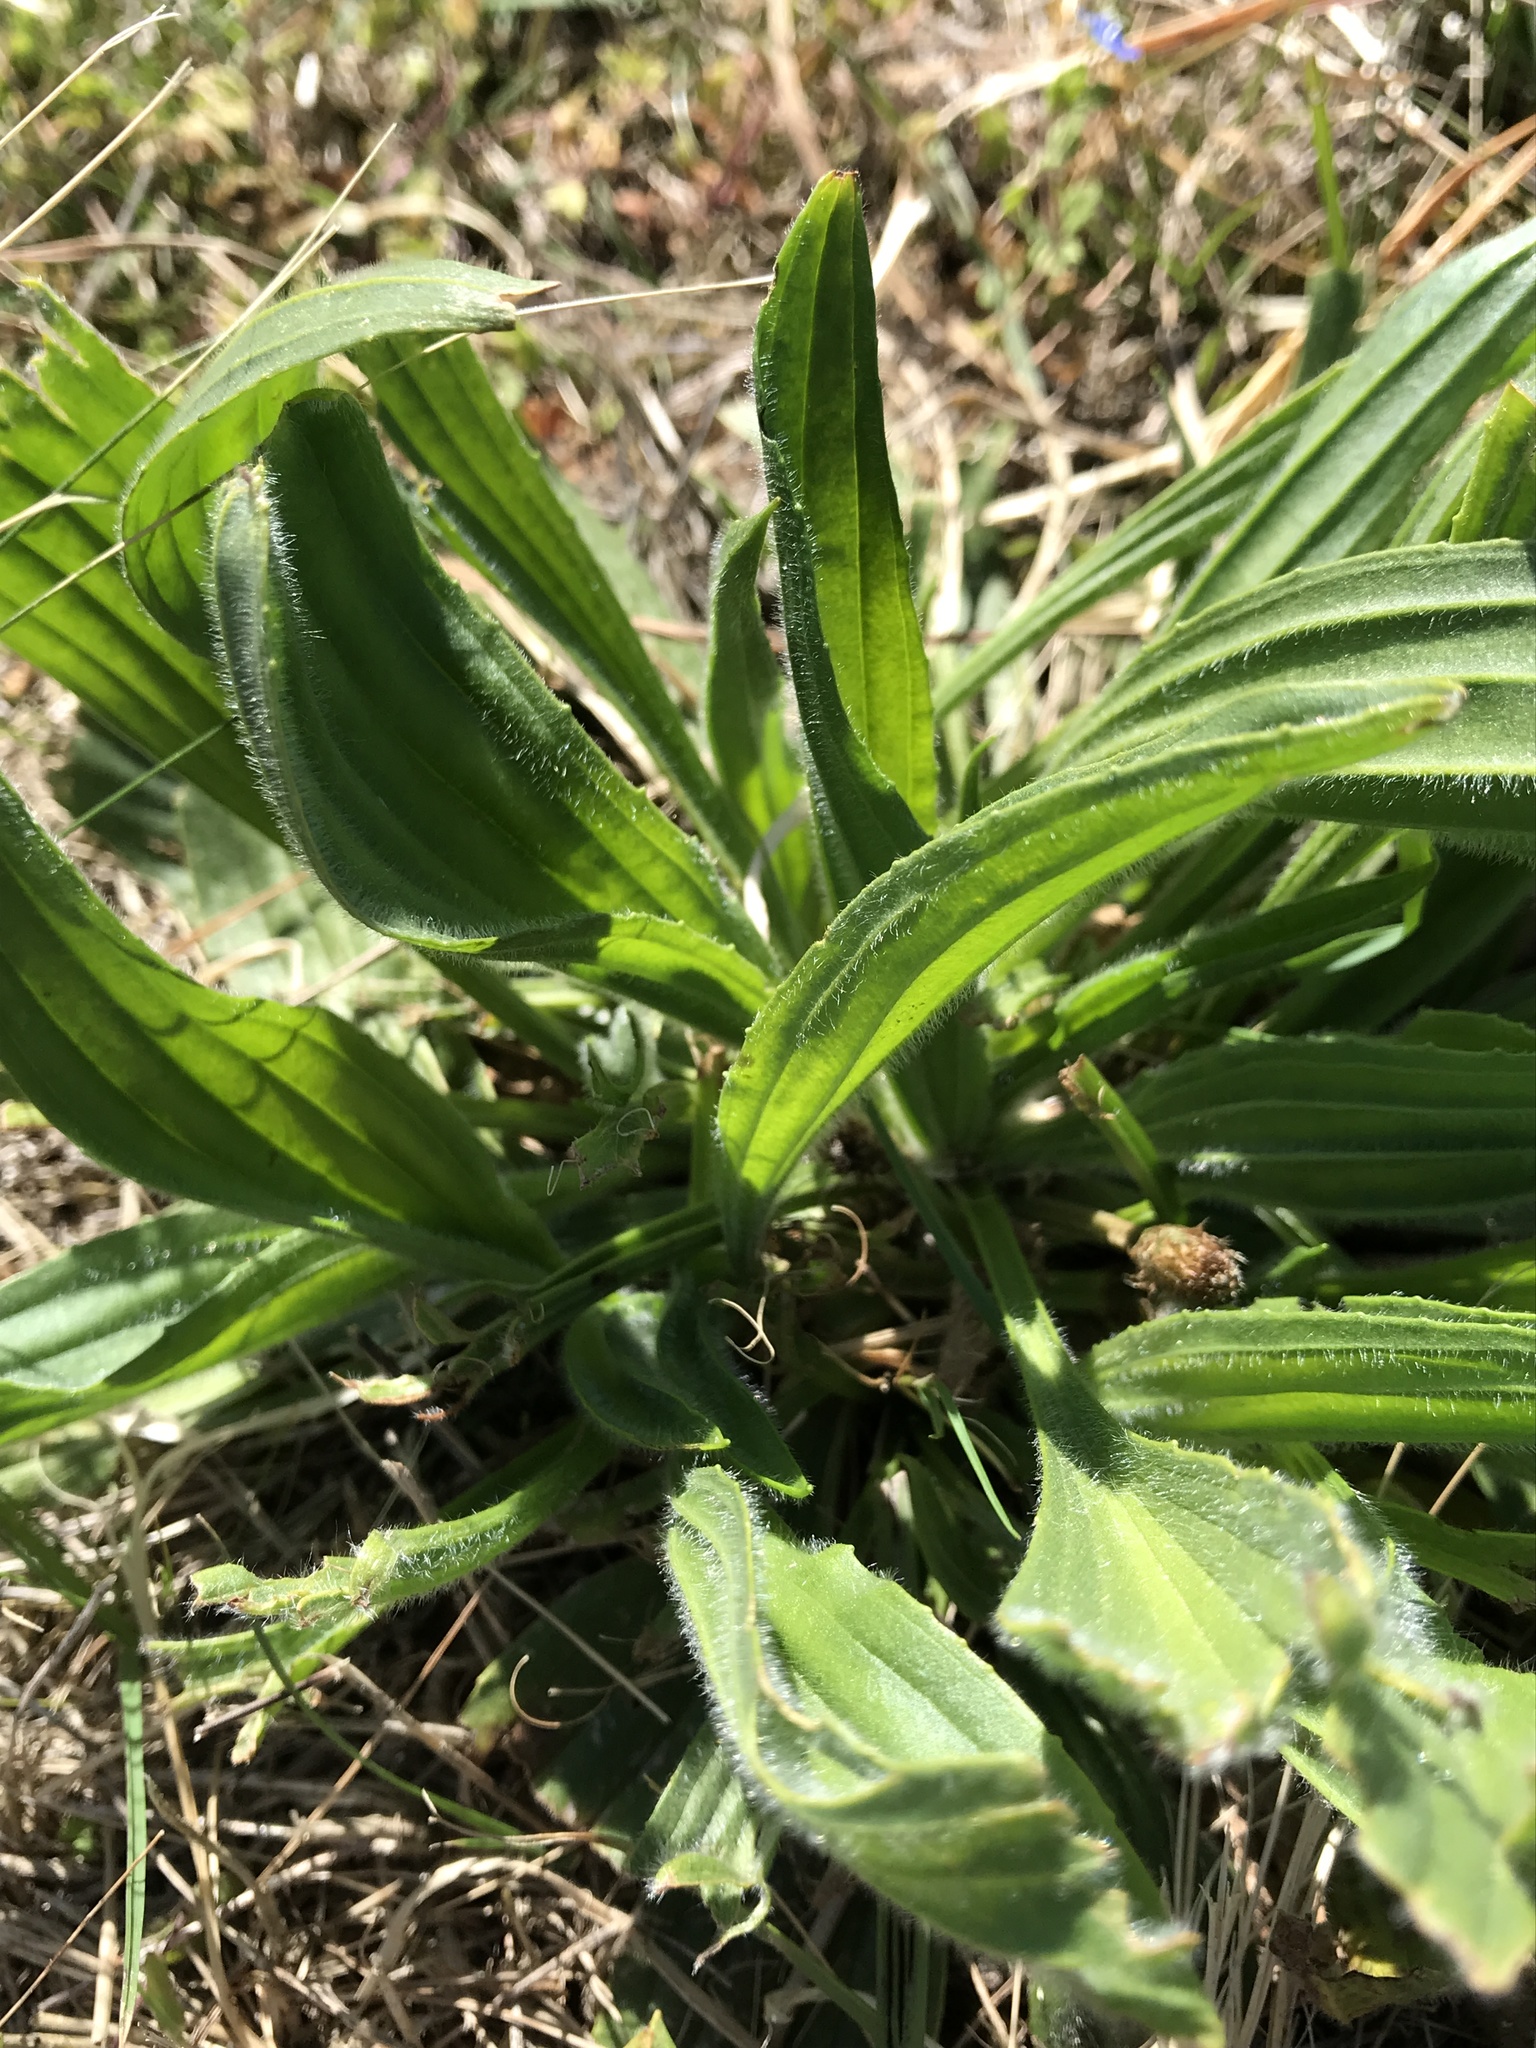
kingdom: Plantae
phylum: Tracheophyta
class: Magnoliopsida
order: Lamiales
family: Plantaginaceae
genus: Plantago
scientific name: Plantago lanceolata
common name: Ribwort plantain
